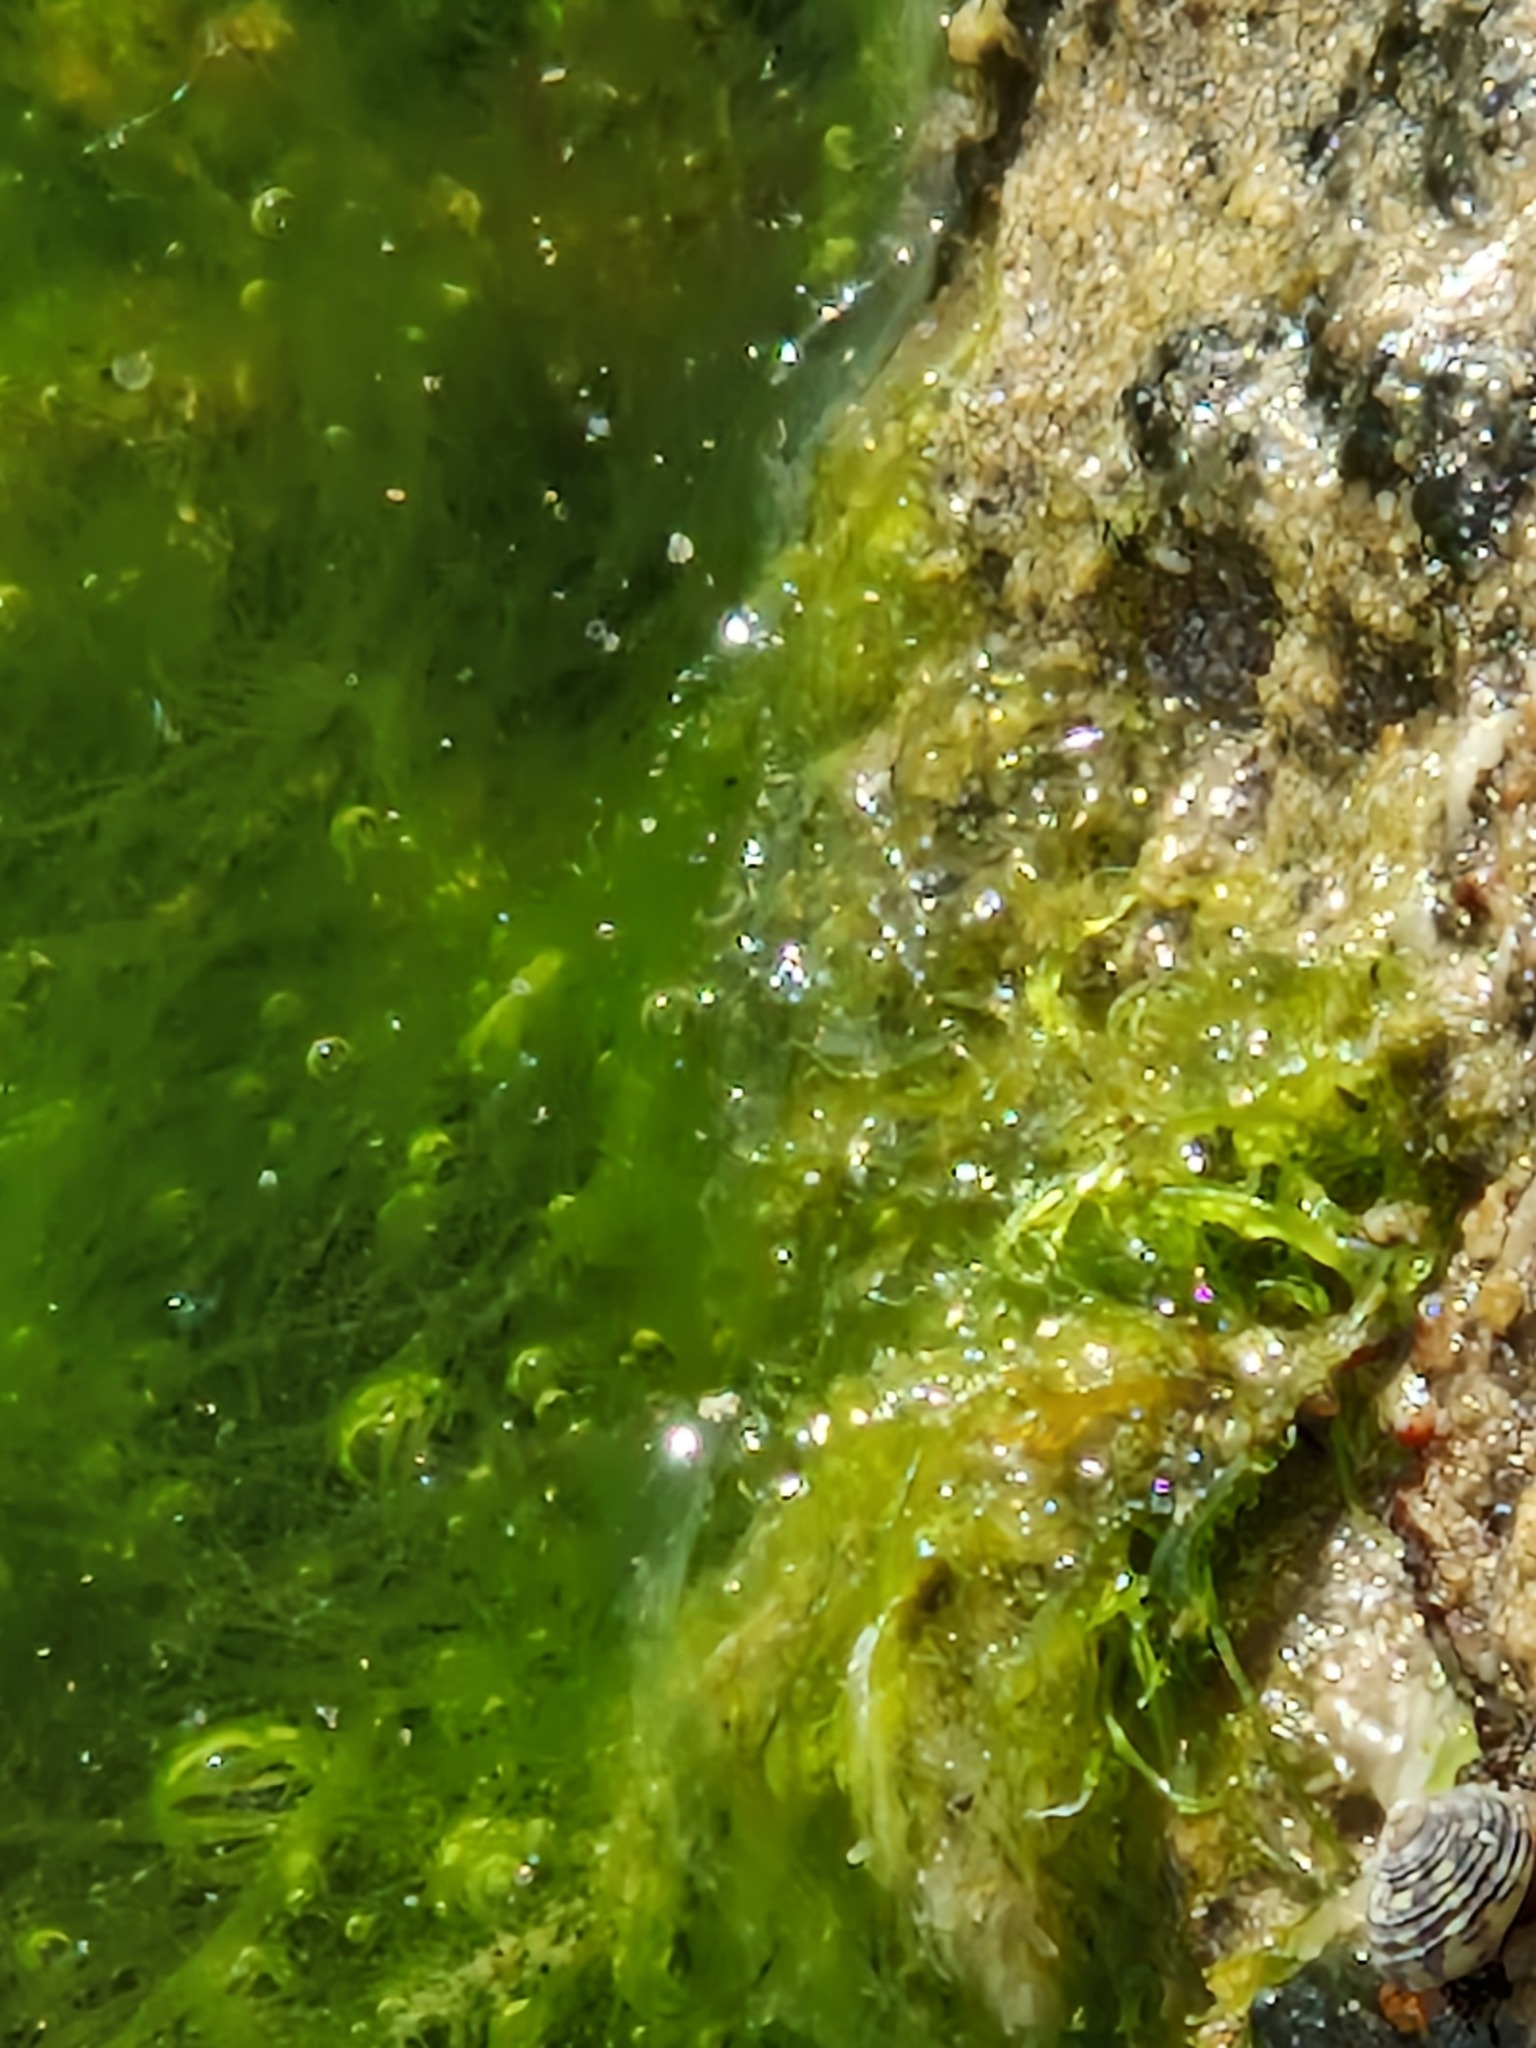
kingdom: Plantae
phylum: Chlorophyta
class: Ulvophyceae
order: Ulvales
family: Ulvaceae
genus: Ulva
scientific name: Ulva intestinalis
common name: Gut weed
